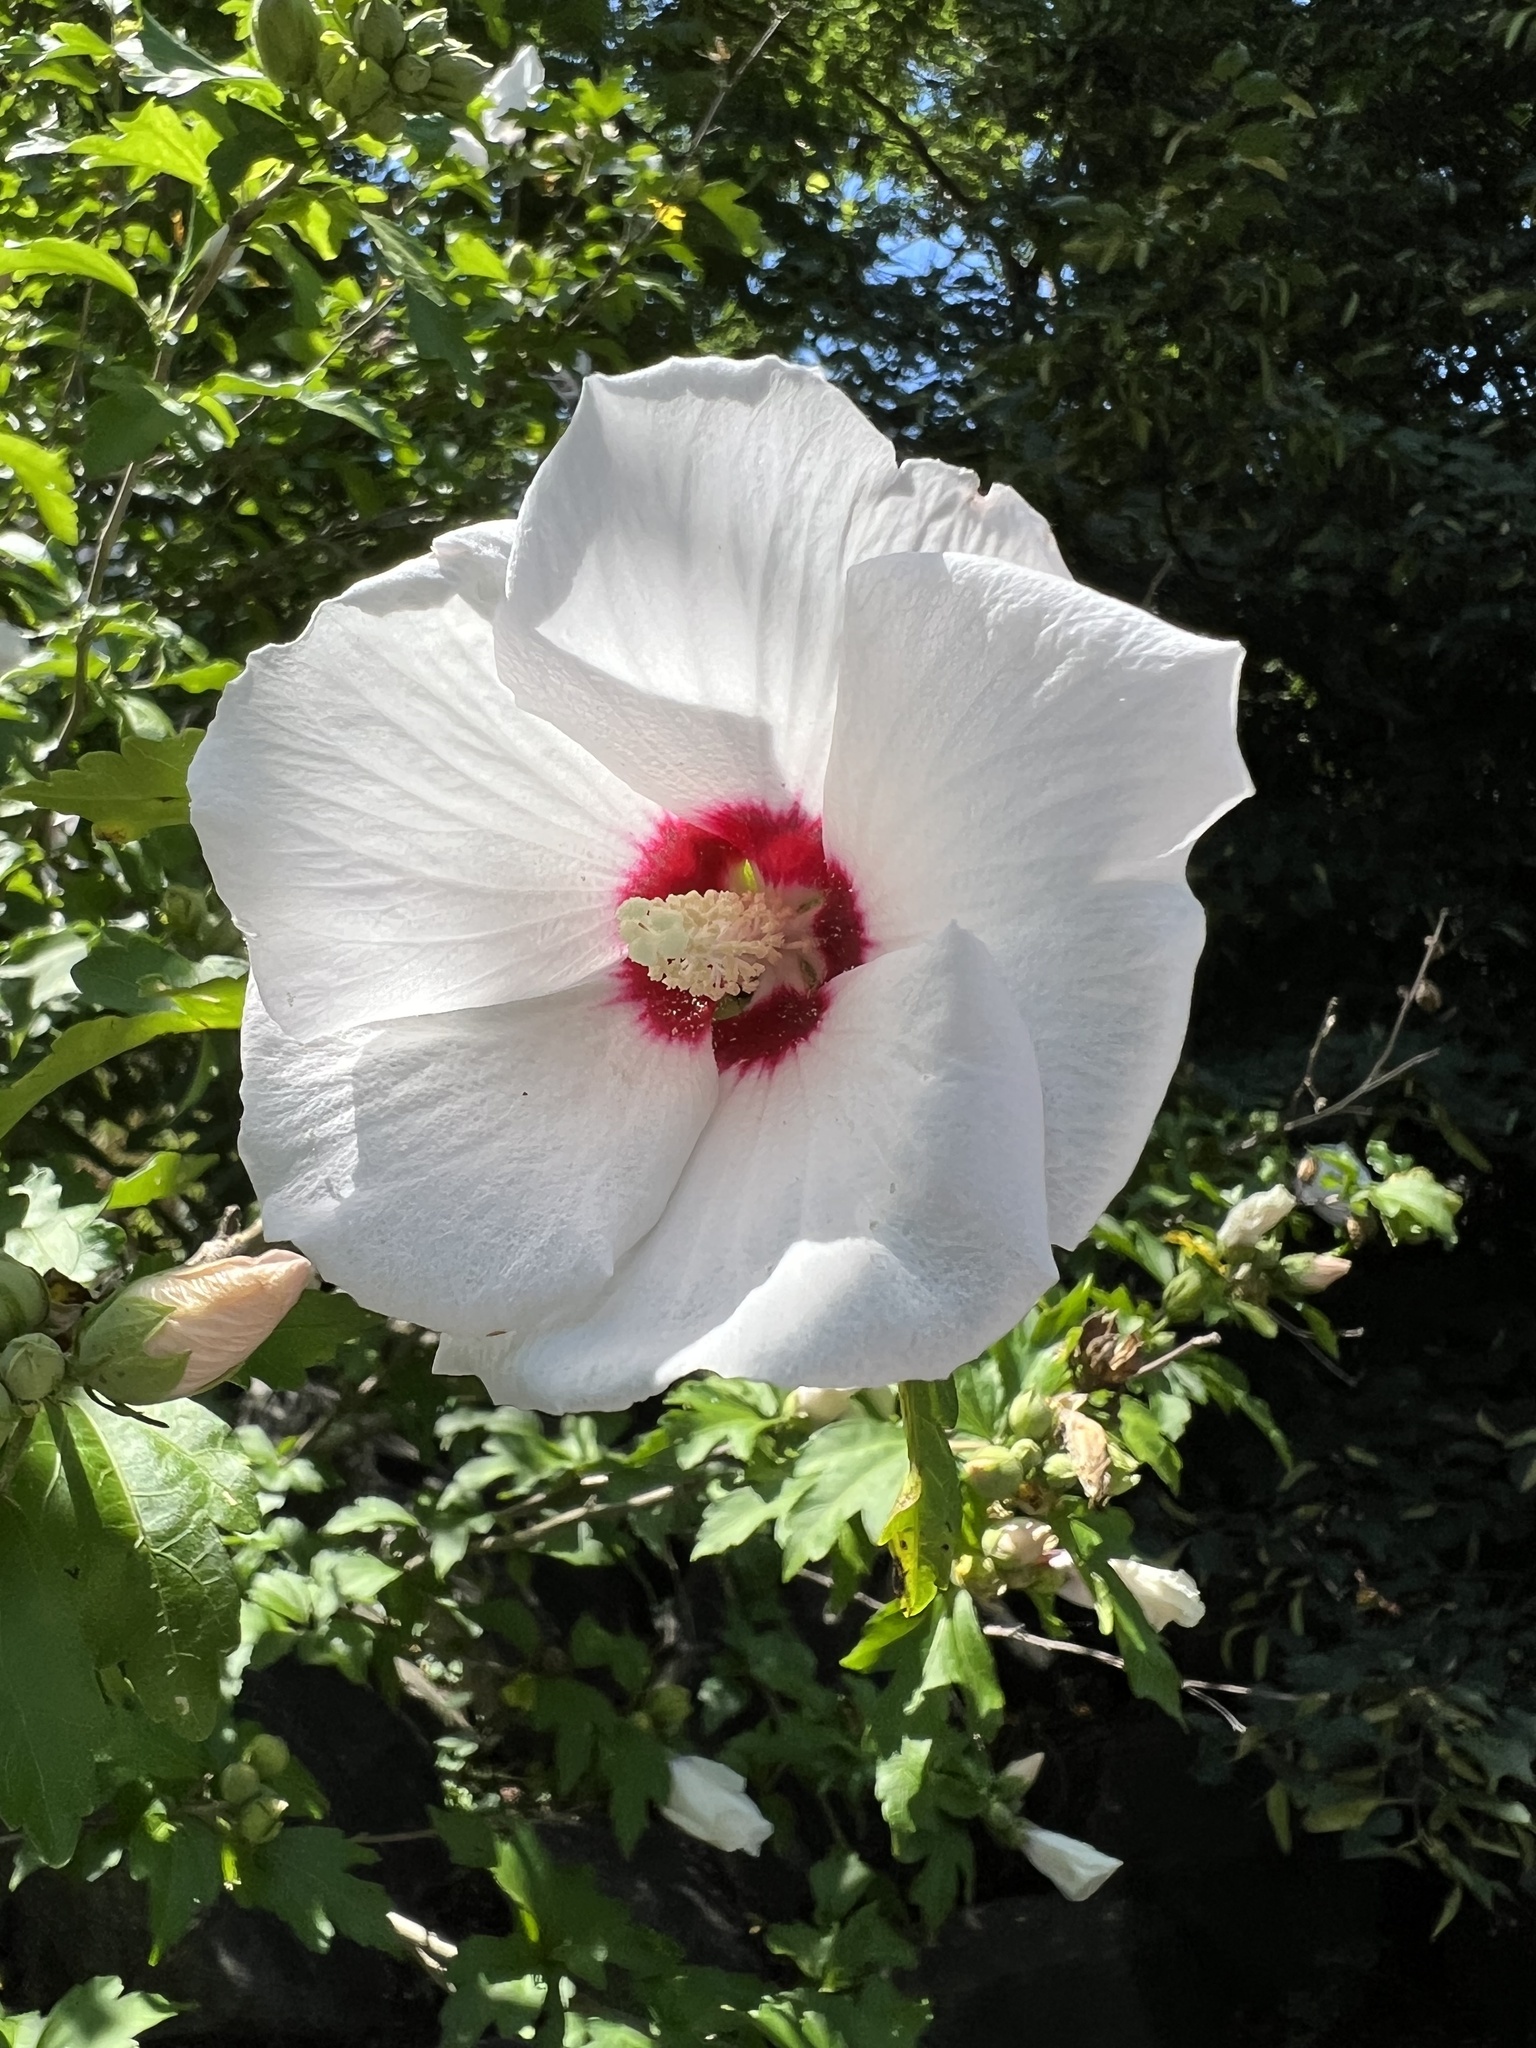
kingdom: Plantae
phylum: Tracheophyta
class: Magnoliopsida
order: Malvales
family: Malvaceae
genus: Hibiscus
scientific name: Hibiscus syriacus
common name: Syrian ketmia
